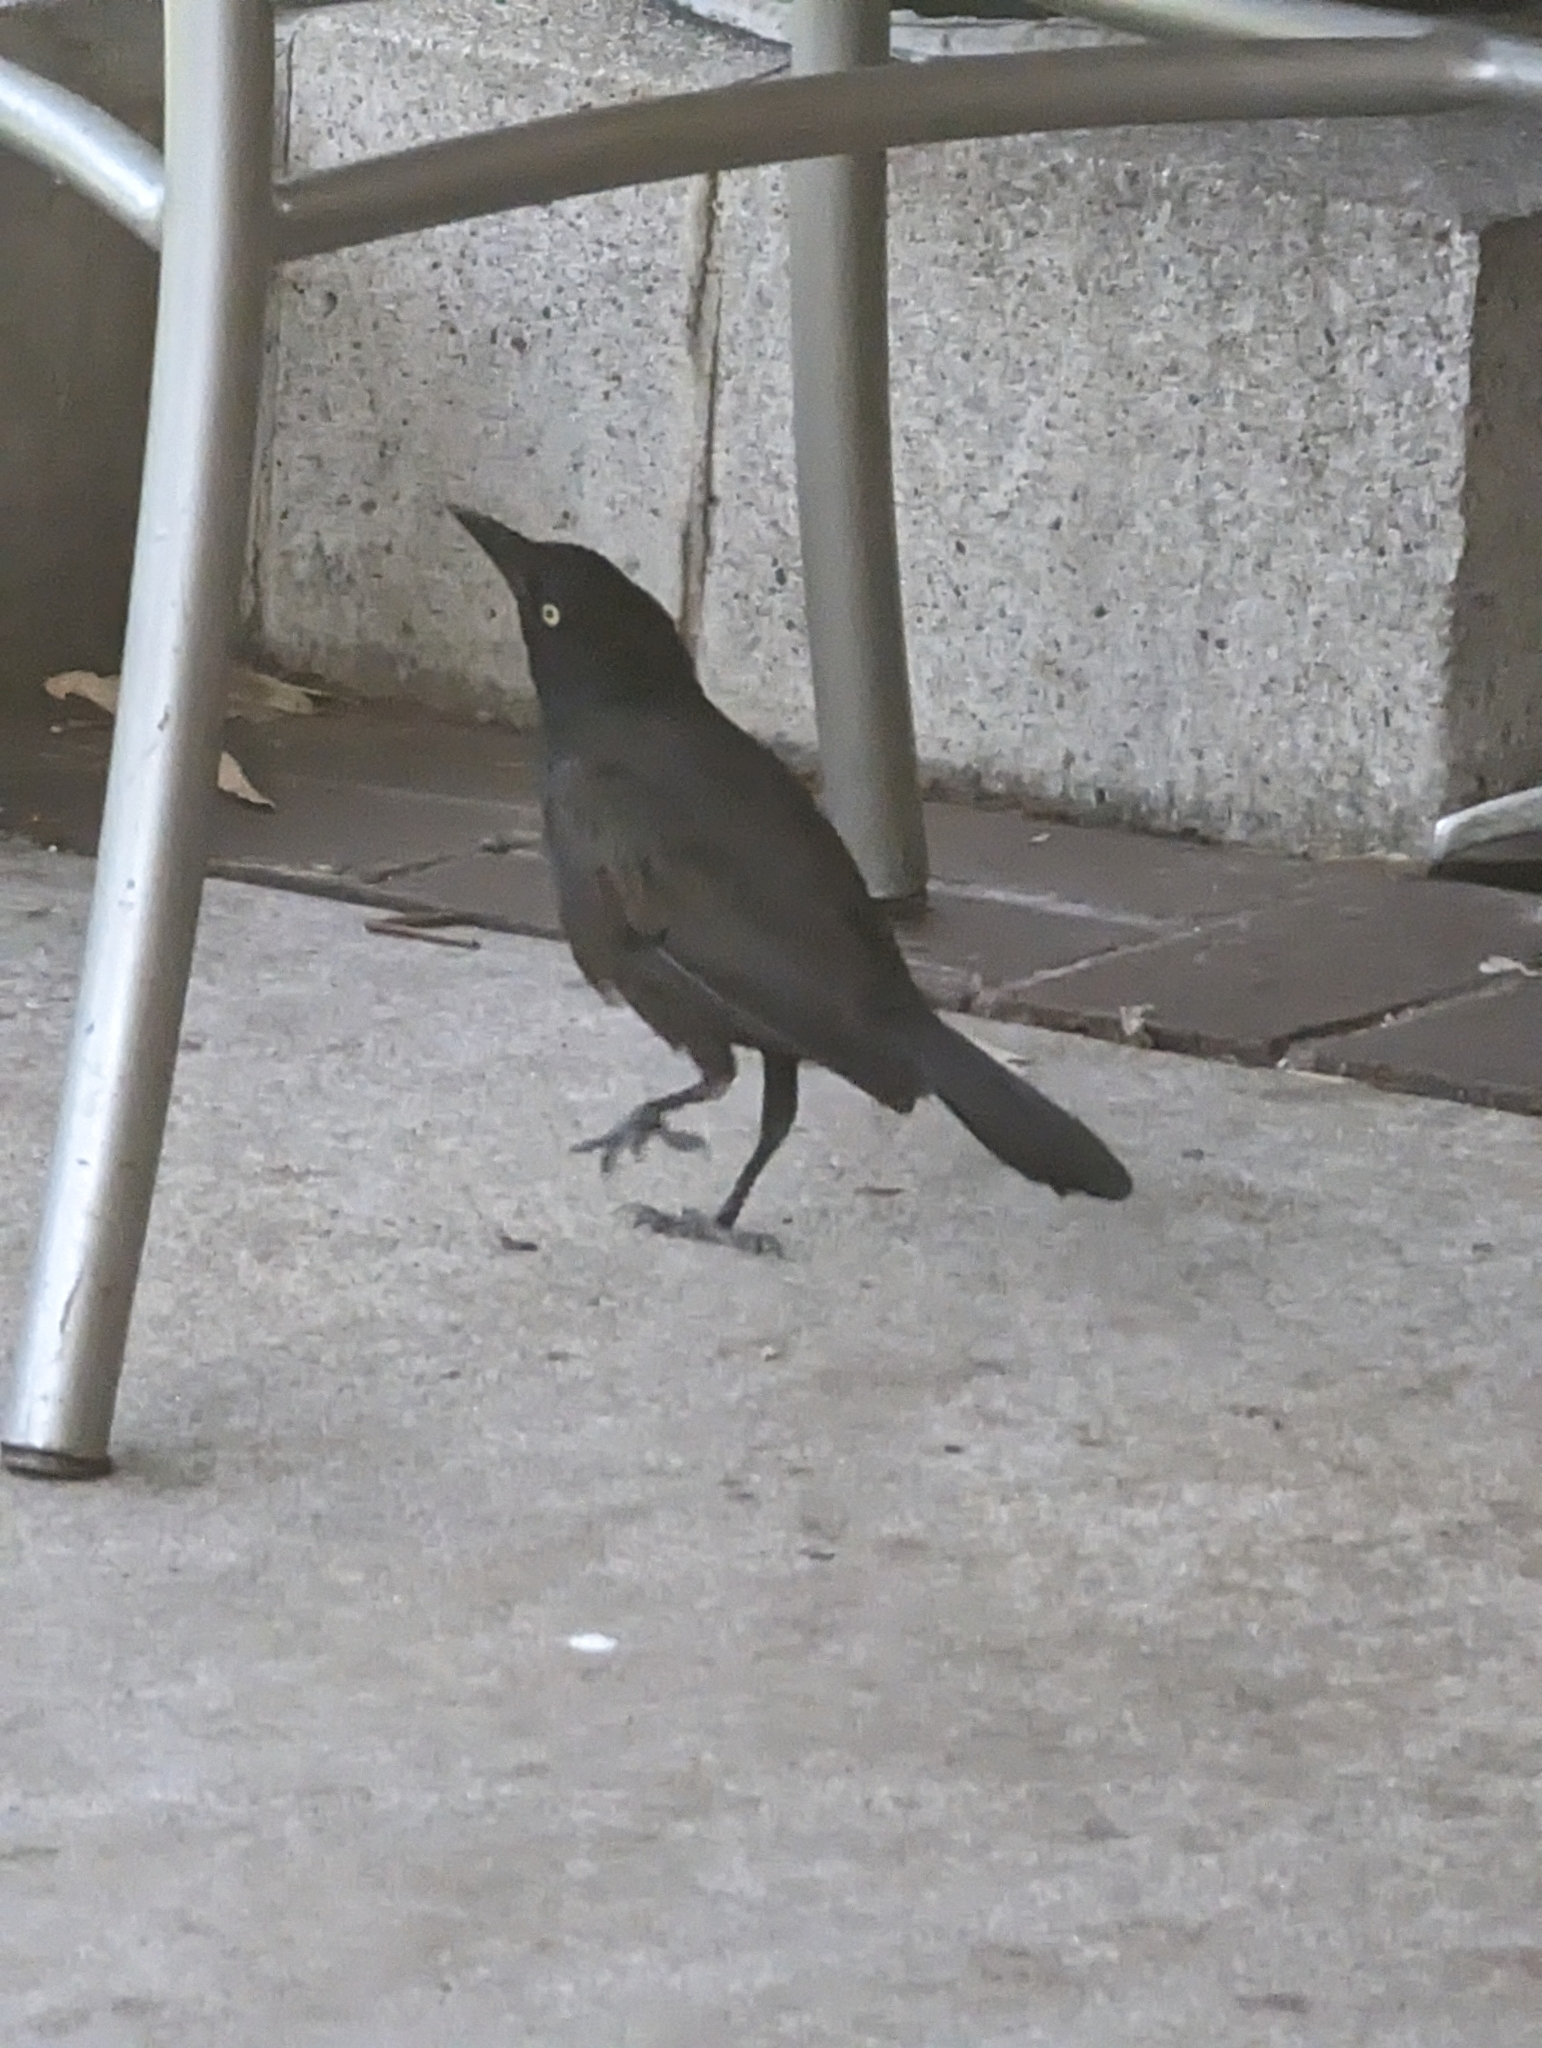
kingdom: Animalia
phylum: Chordata
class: Aves
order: Passeriformes
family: Icteridae
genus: Quiscalus
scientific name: Quiscalus quiscula
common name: Common grackle
